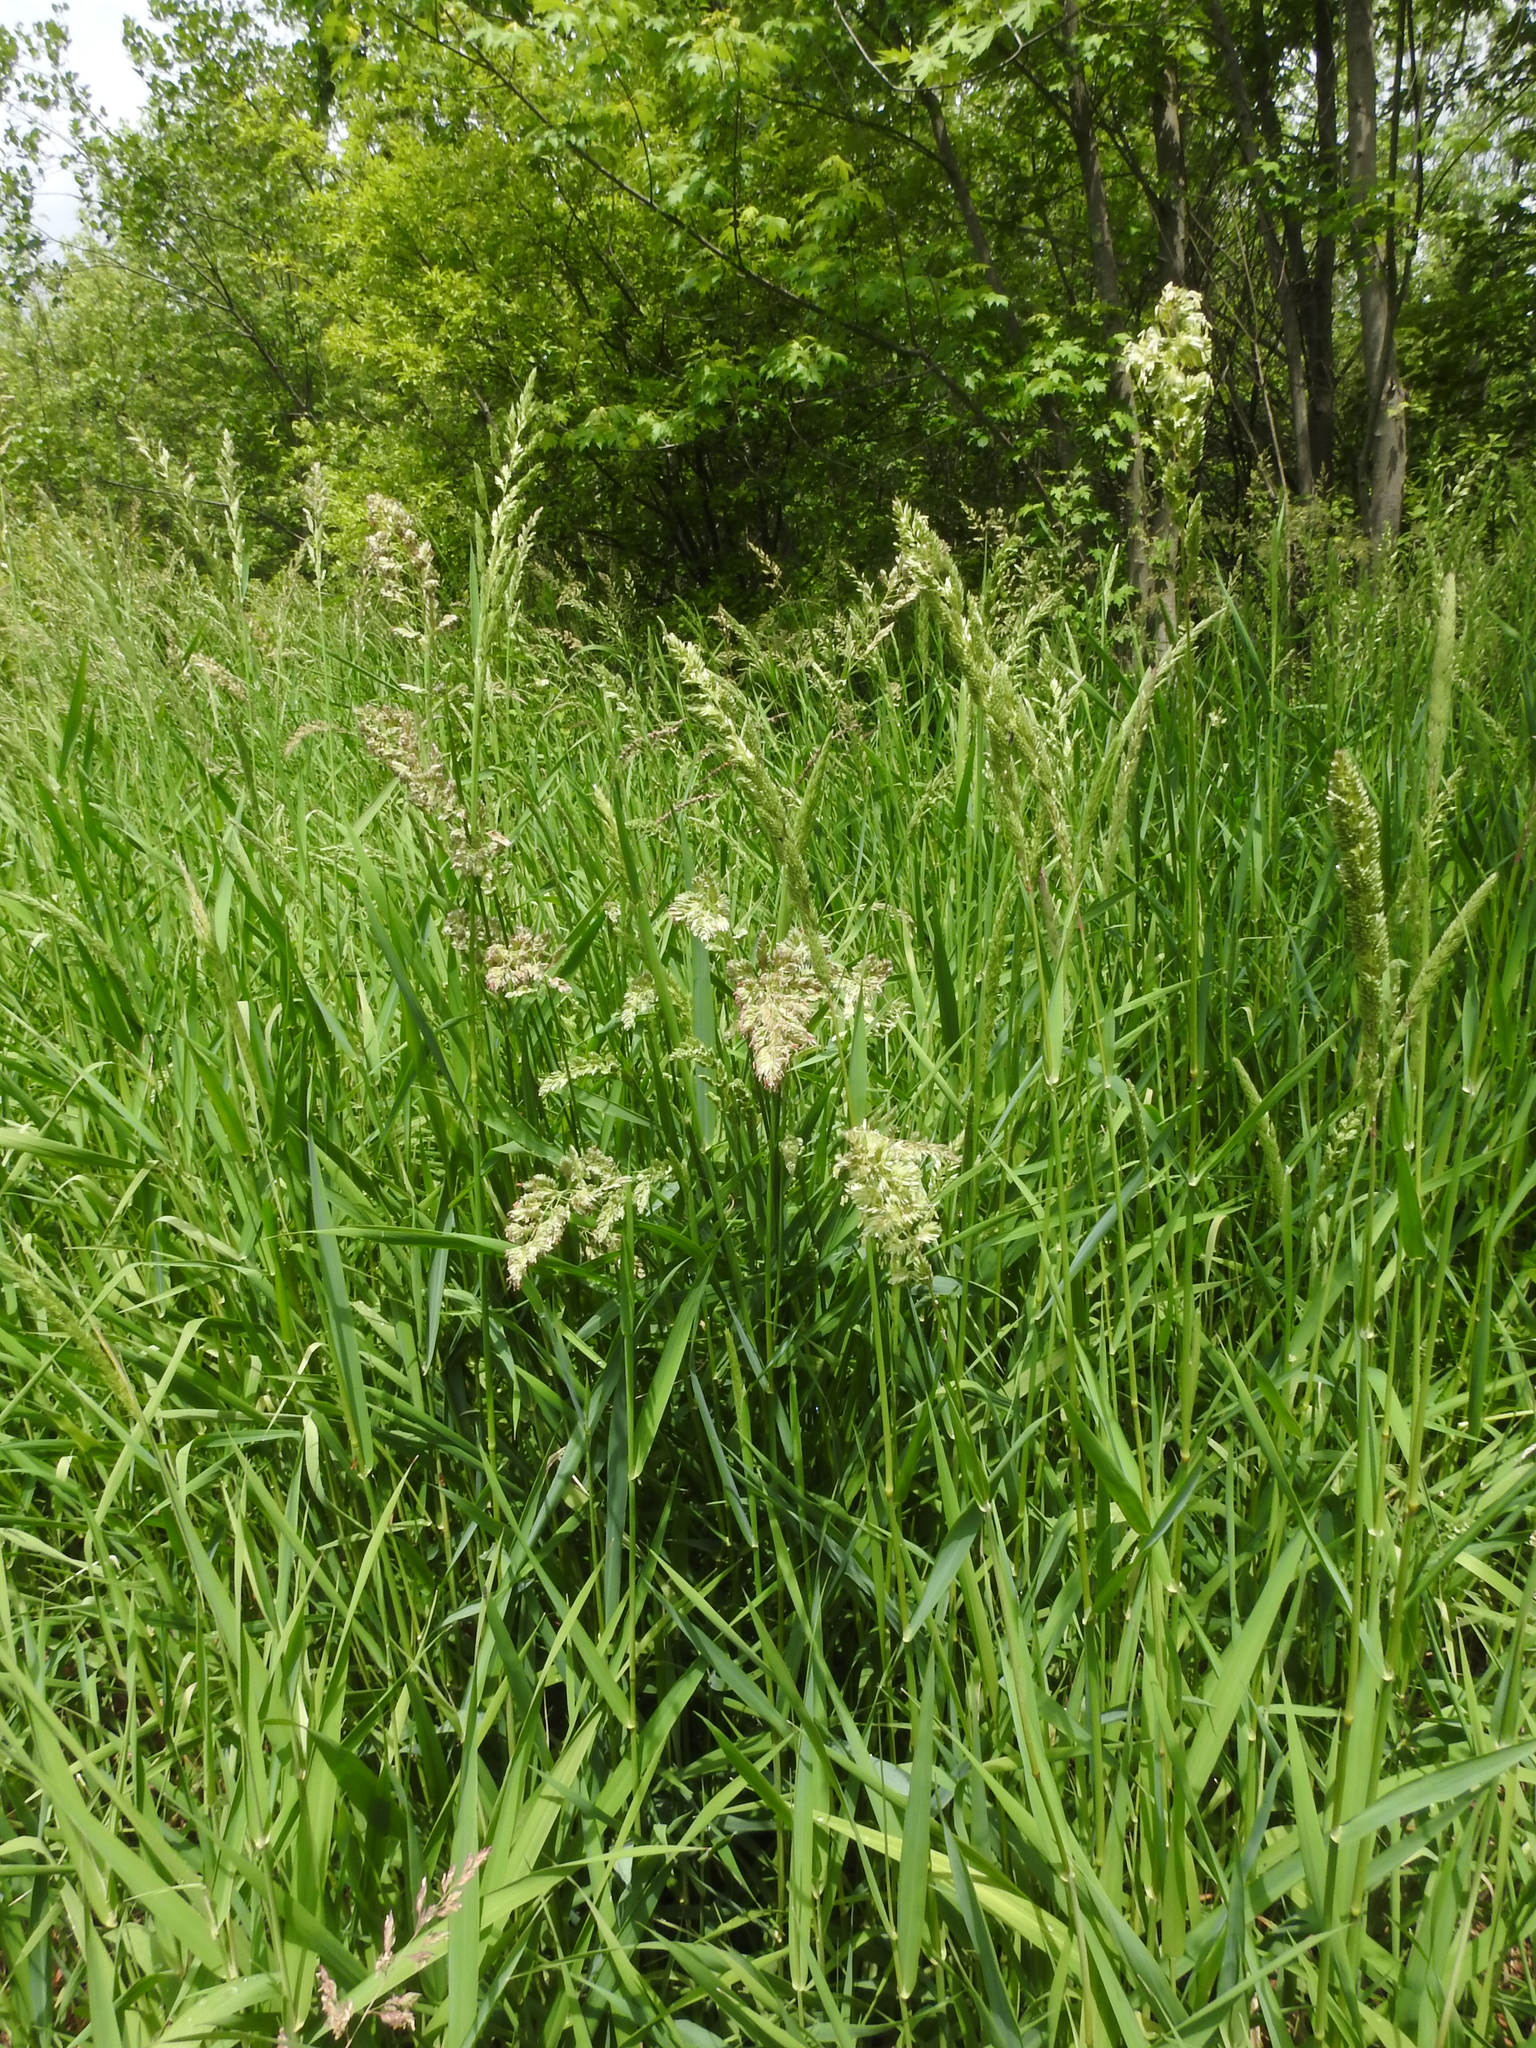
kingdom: Plantae
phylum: Tracheophyta
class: Liliopsida
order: Poales
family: Poaceae
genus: Phalaris
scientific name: Phalaris arundinacea
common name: Reed canary-grass
